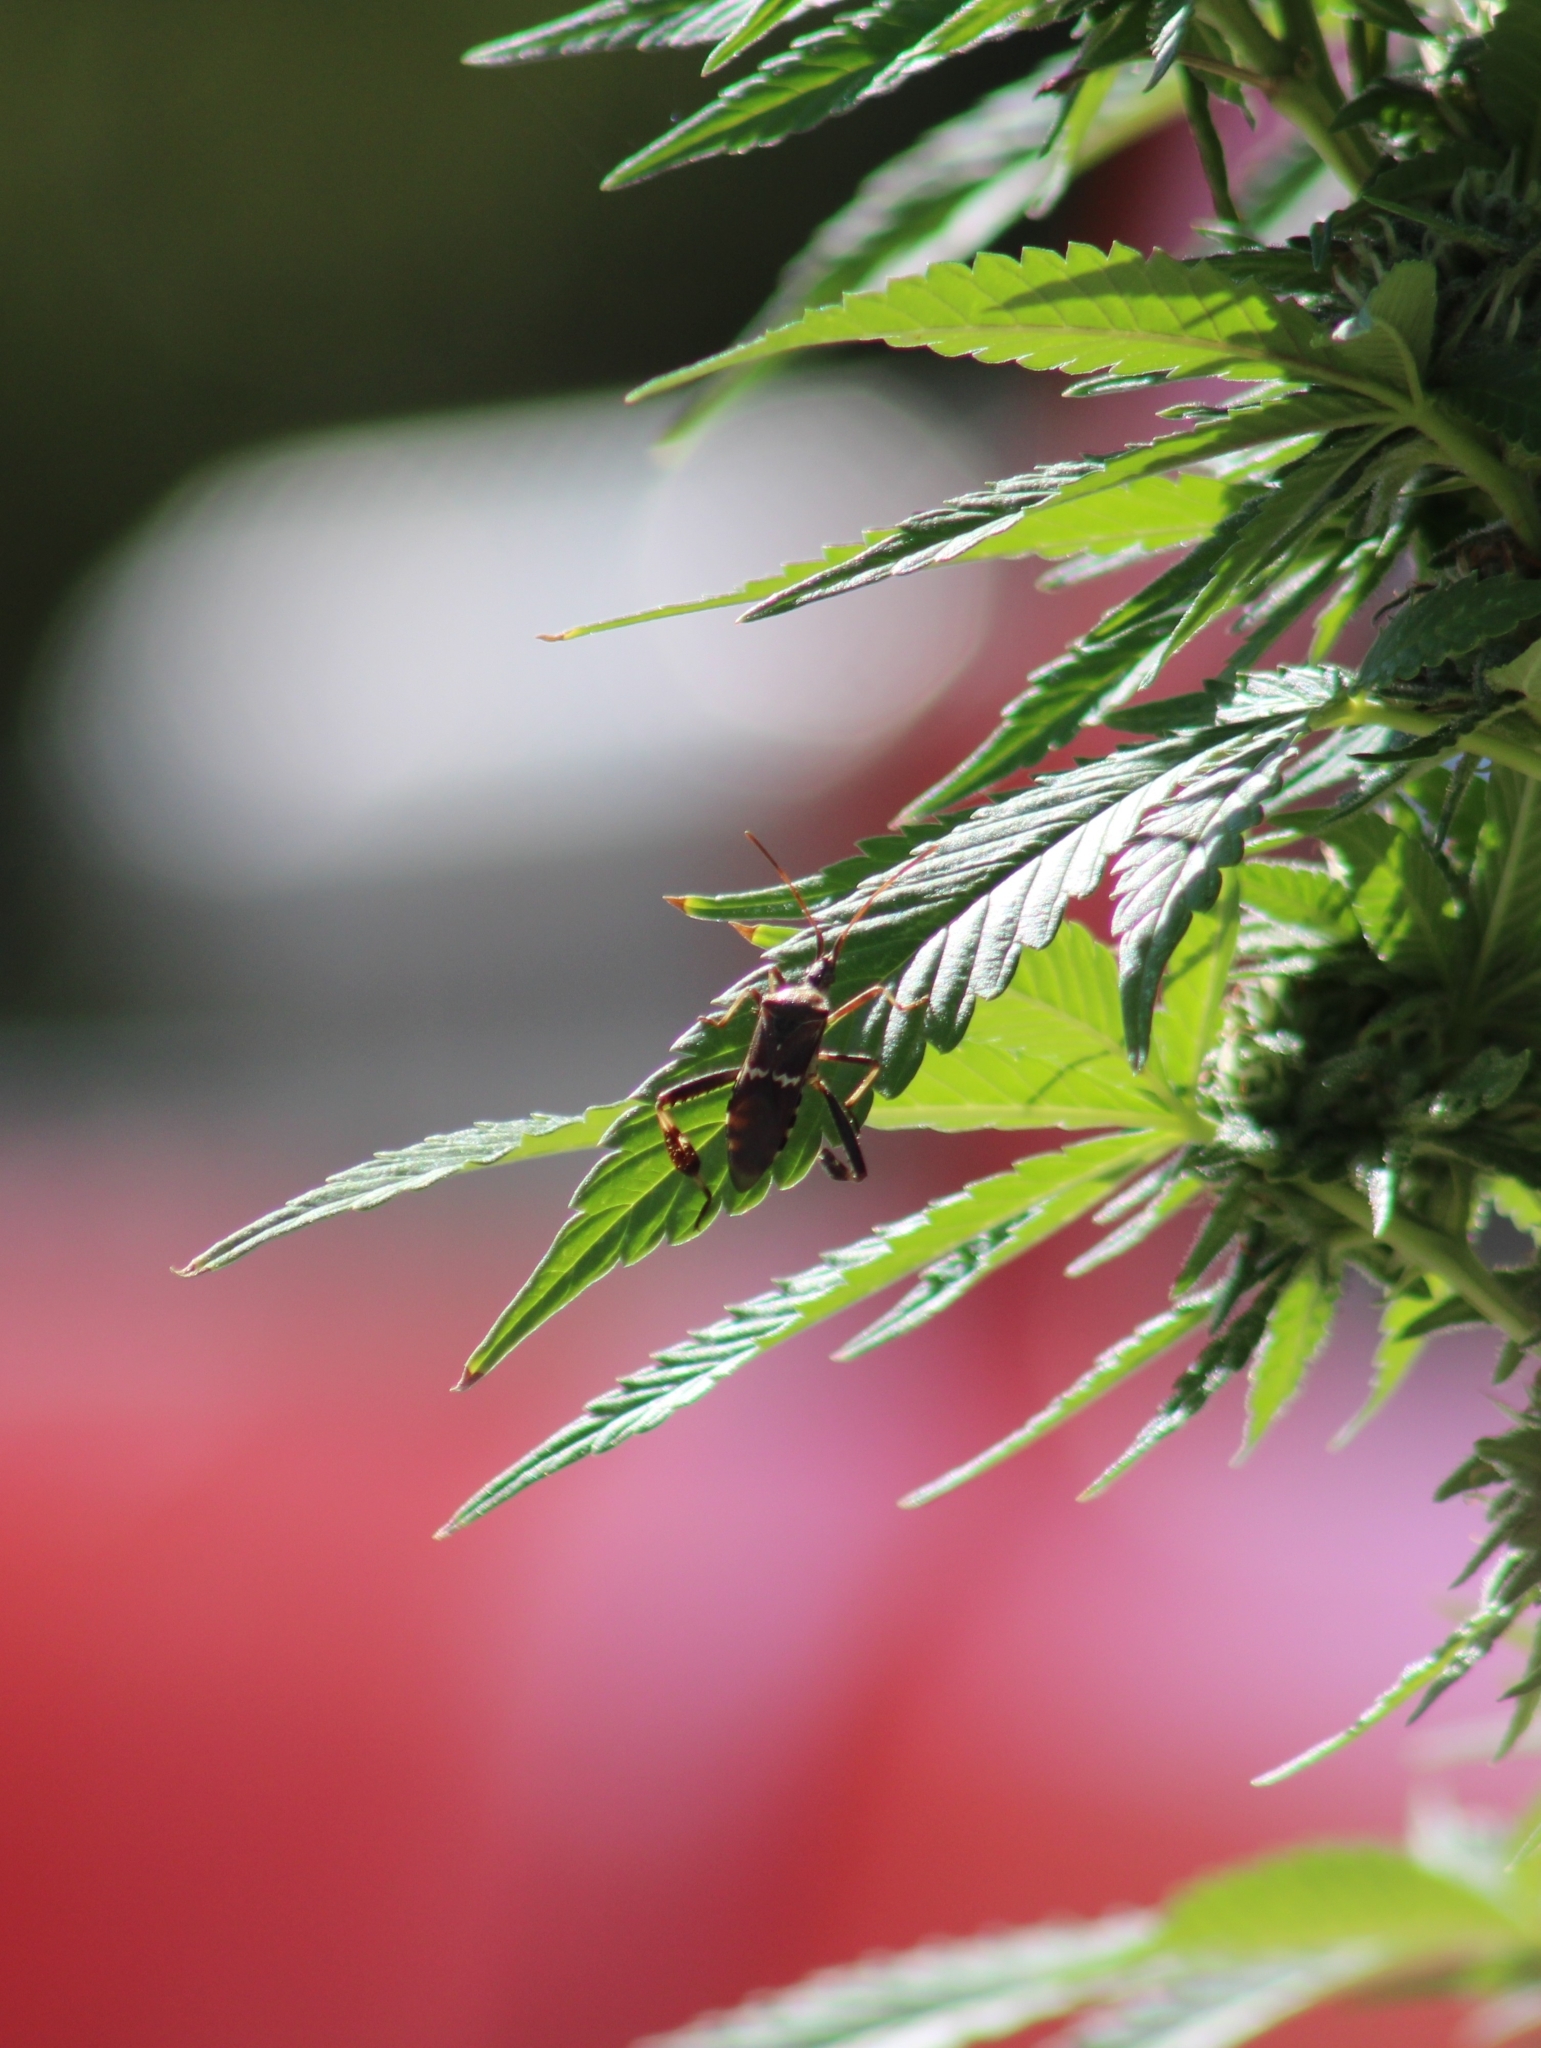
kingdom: Animalia
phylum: Arthropoda
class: Insecta
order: Hemiptera
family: Coreidae
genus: Leptoglossus
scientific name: Leptoglossus clypealis
